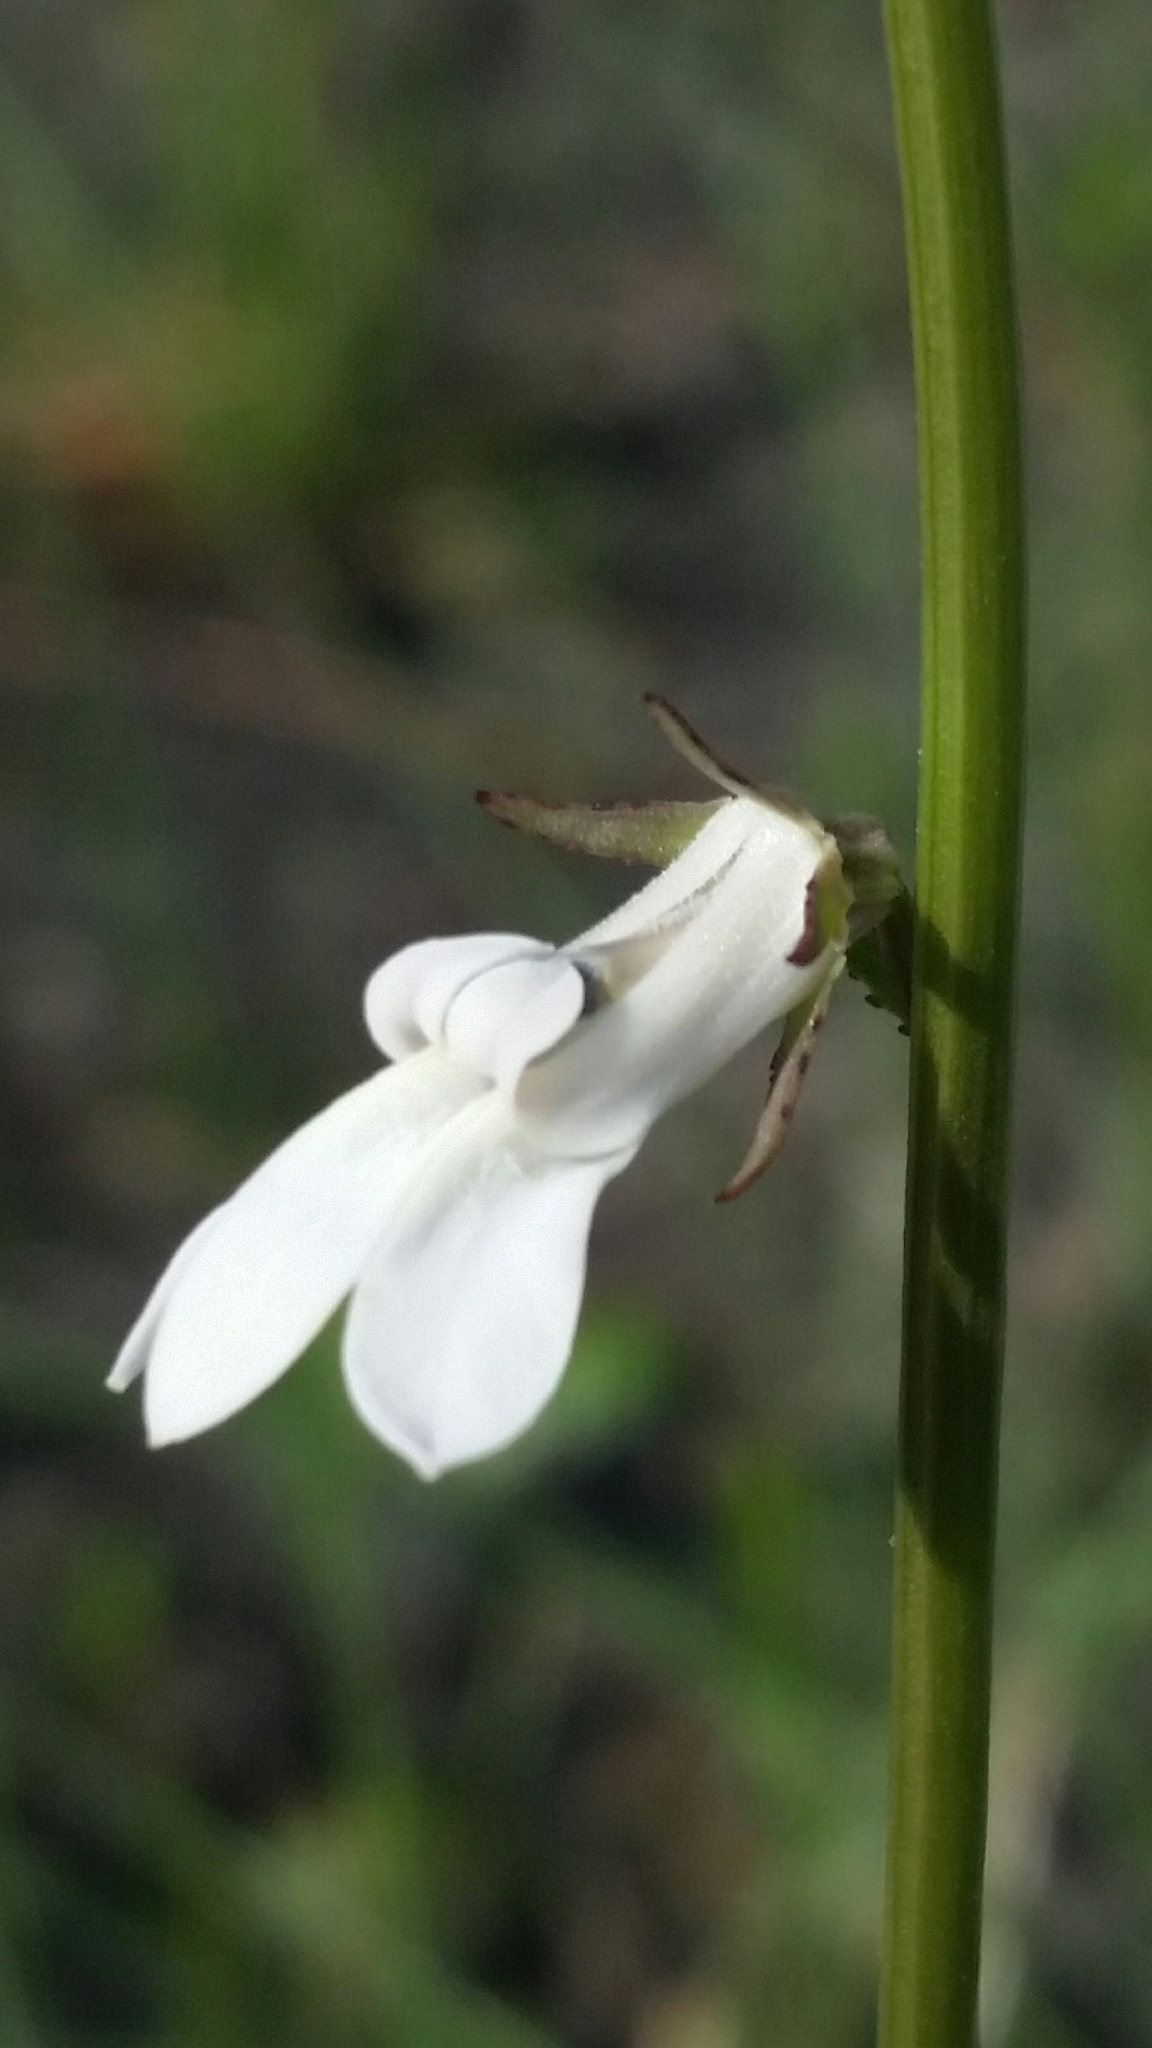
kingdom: Plantae
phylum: Tracheophyta
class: Magnoliopsida
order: Asterales
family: Campanulaceae
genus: Lobelia
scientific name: Lobelia paludosa
